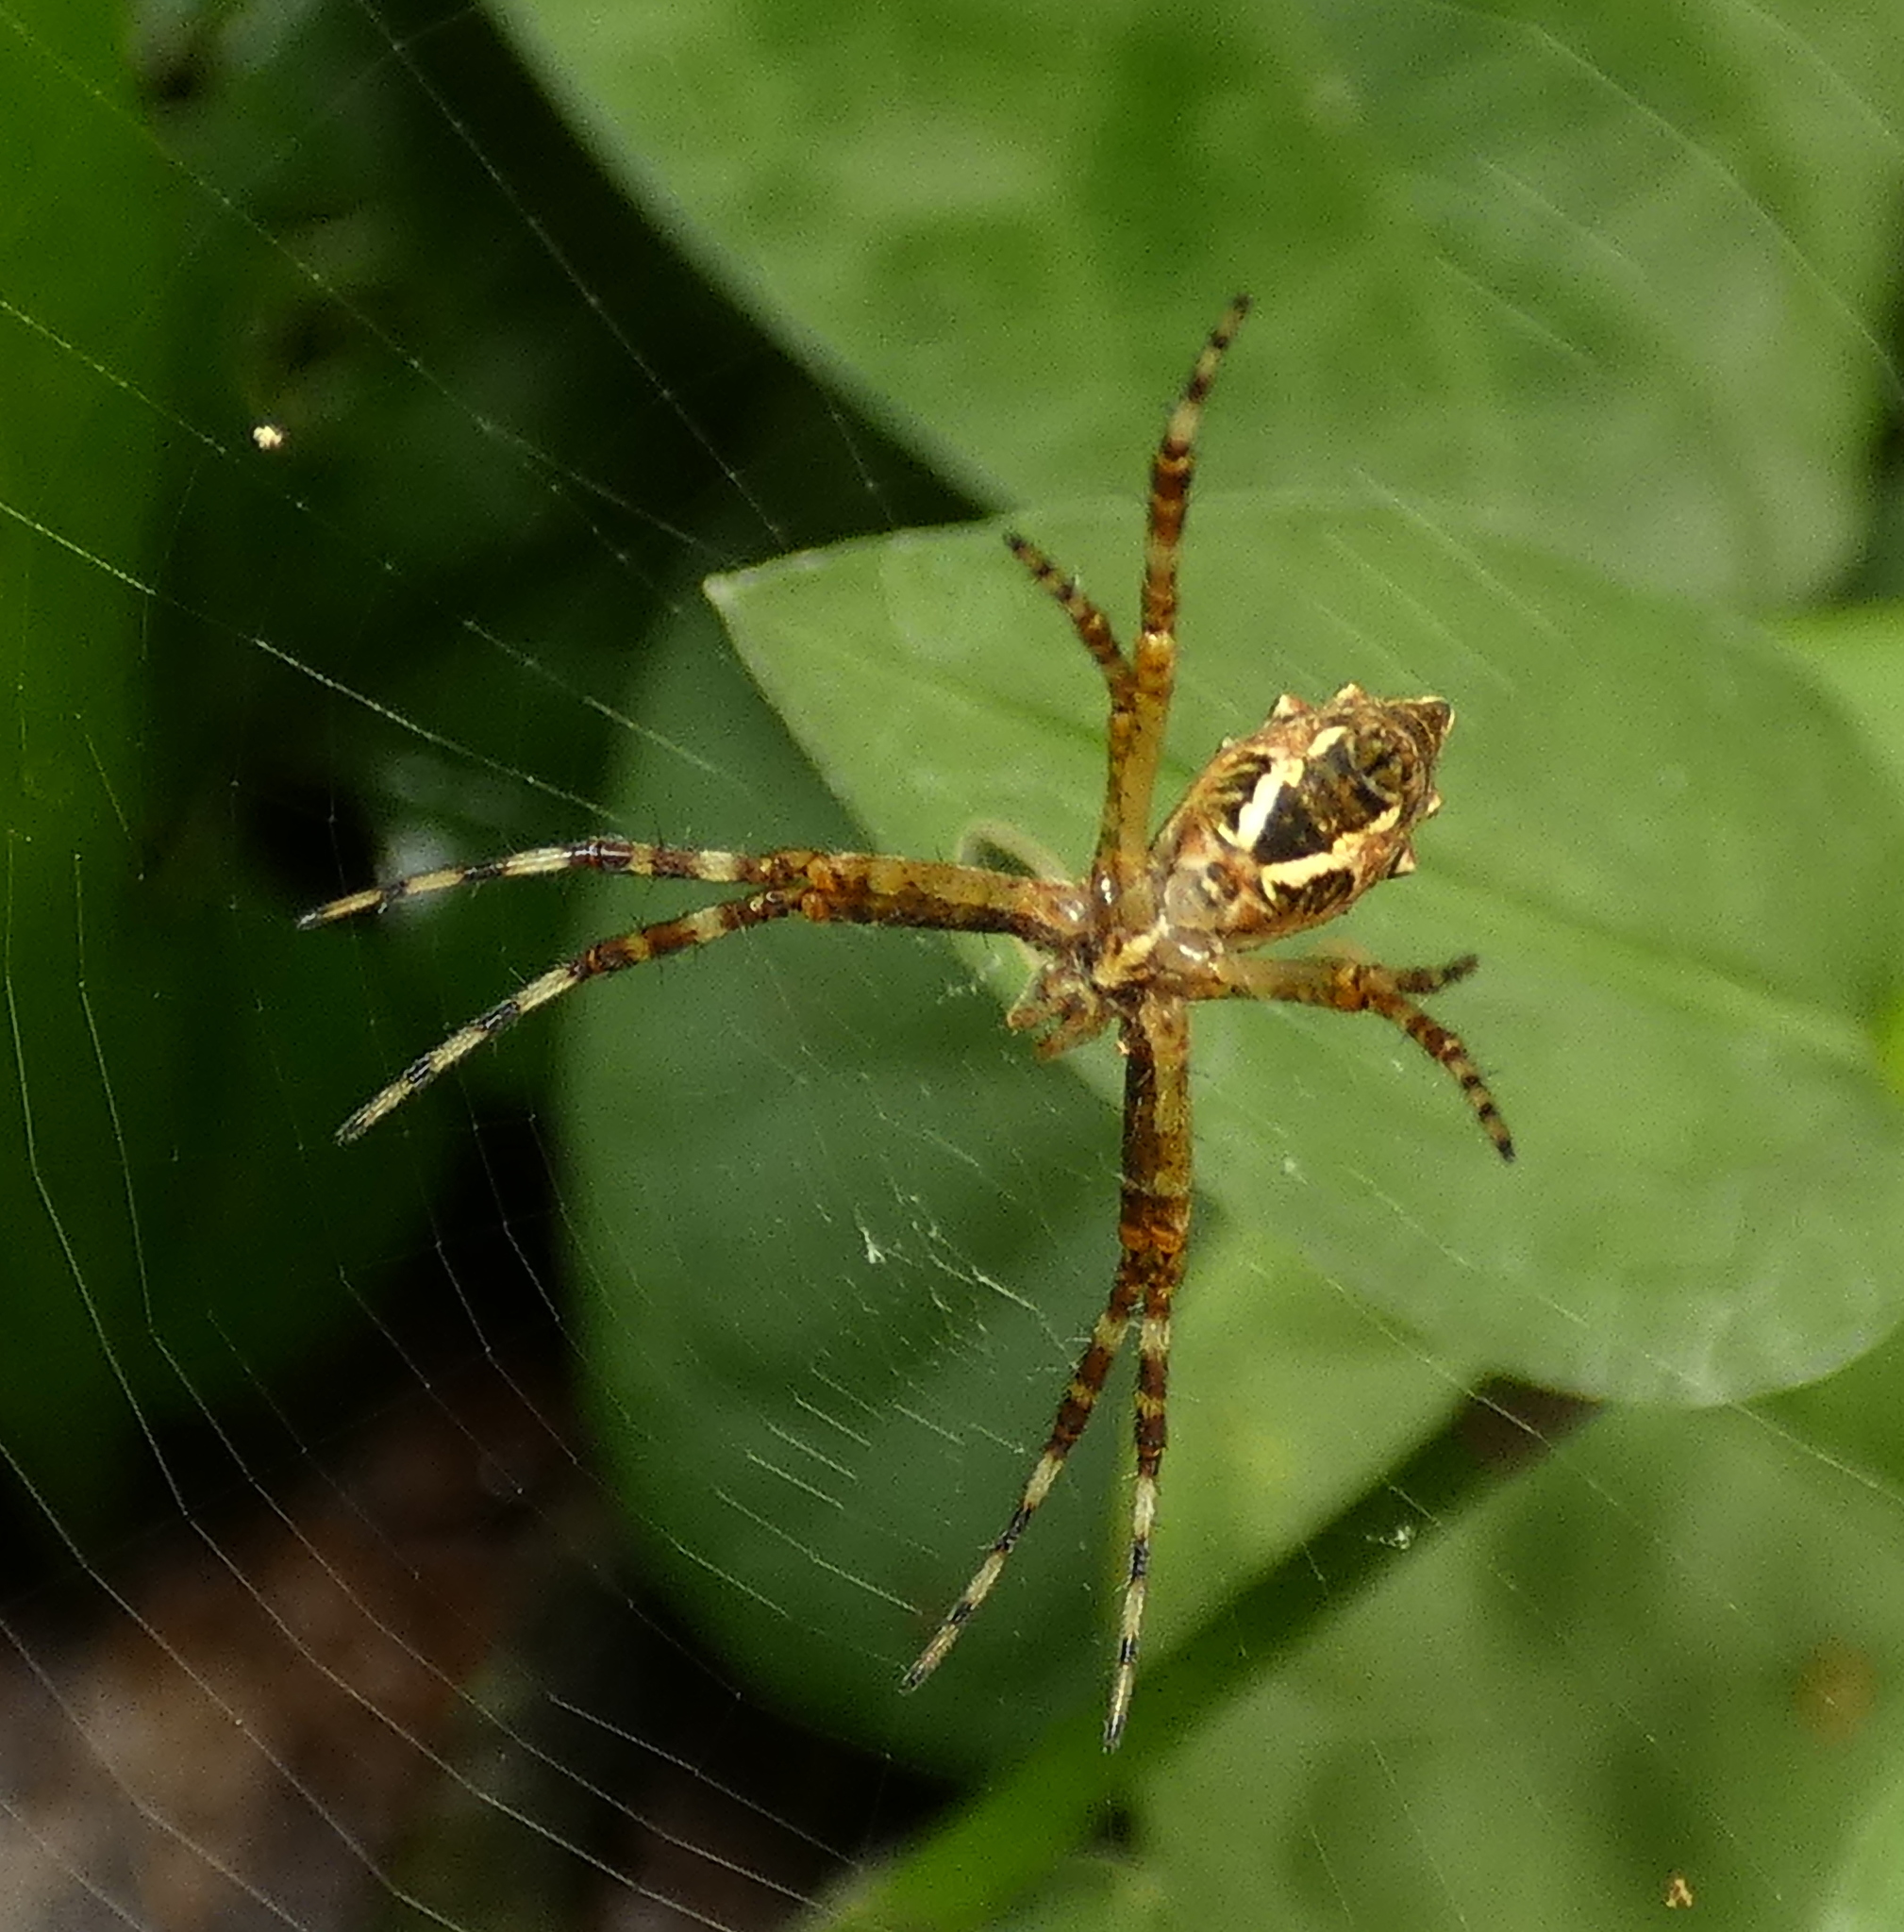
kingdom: Animalia
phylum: Arthropoda
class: Arachnida
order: Araneae
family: Araneidae
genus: Argiope
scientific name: Argiope argentata
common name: Orb weavers
